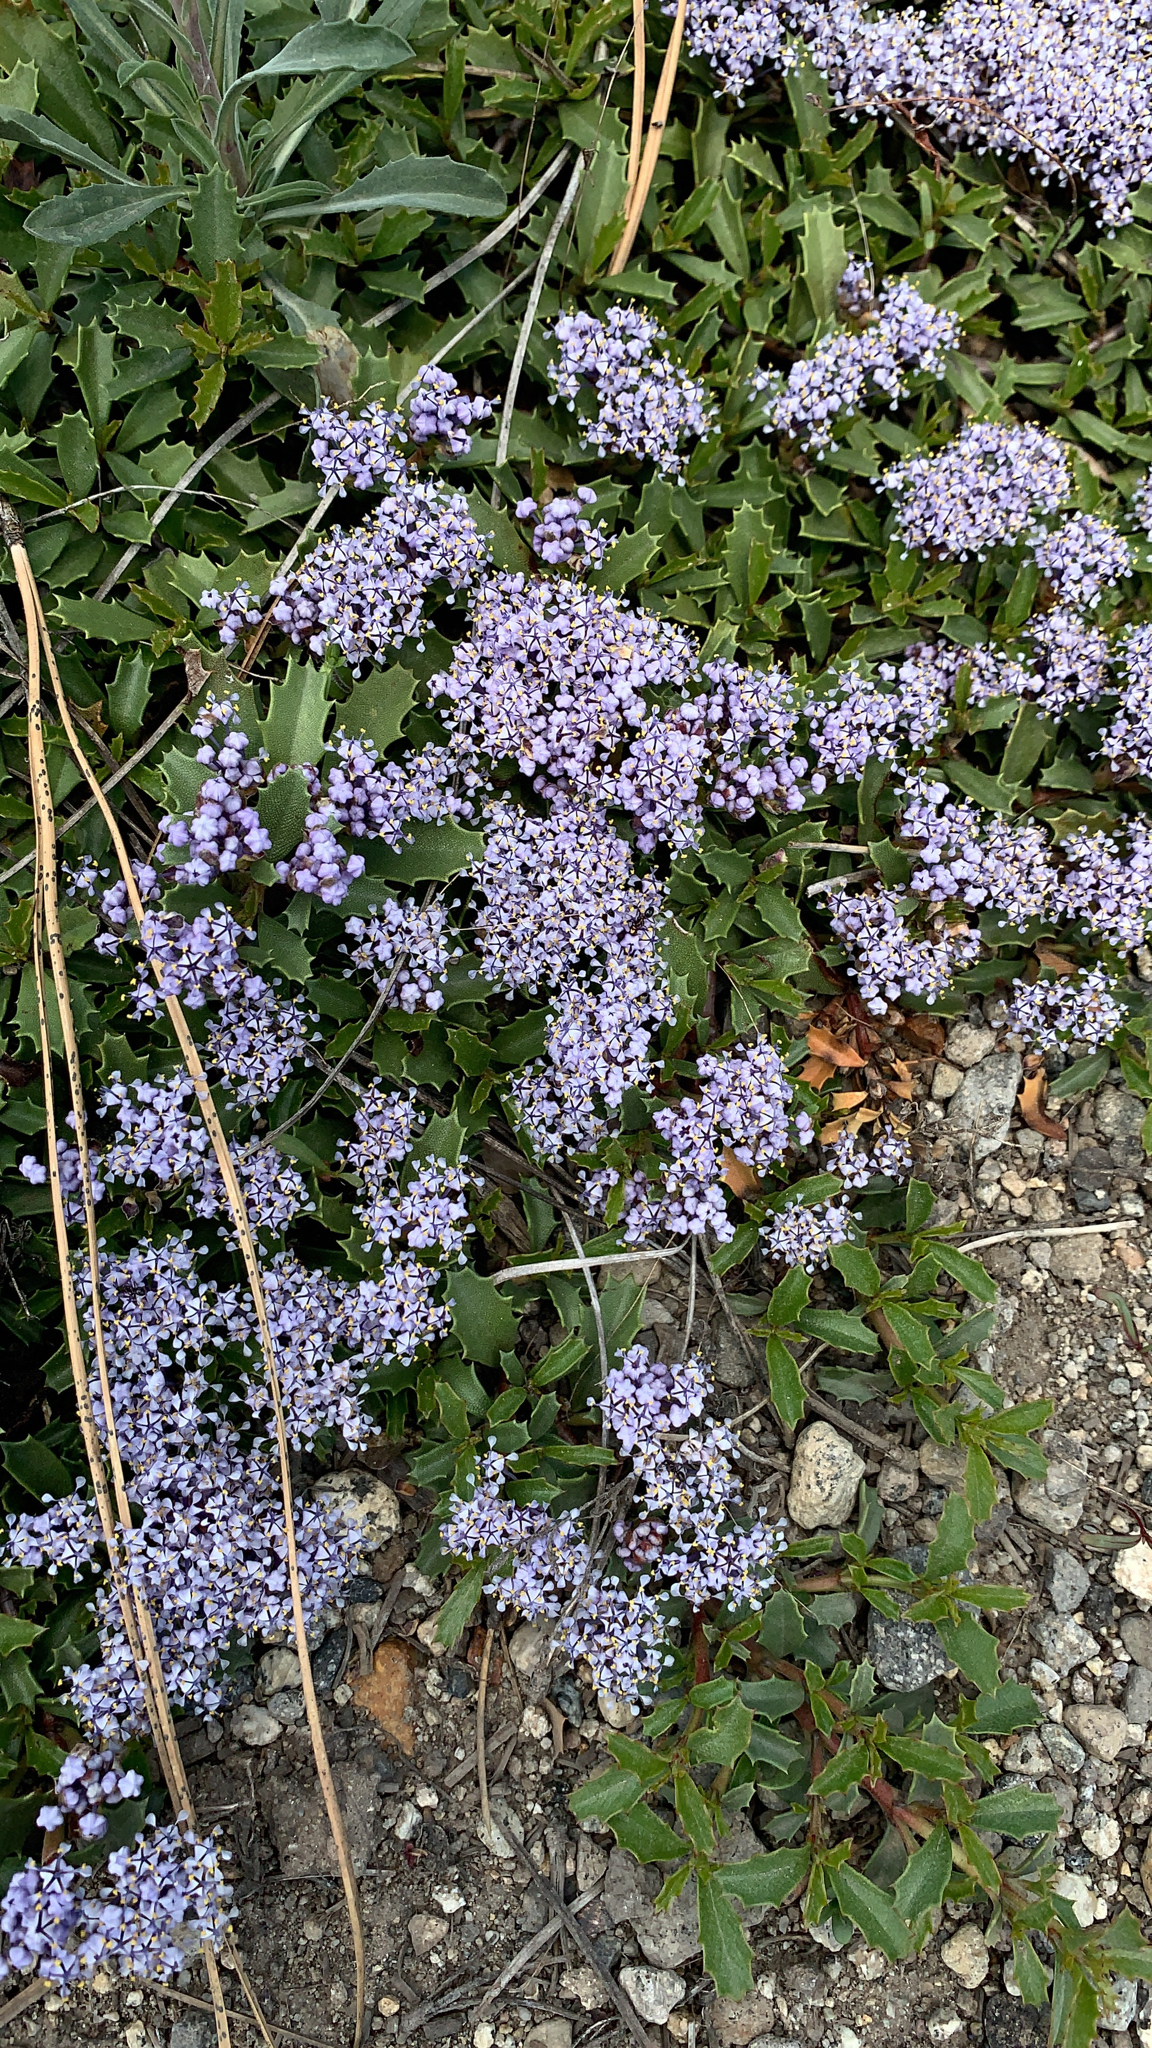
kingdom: Plantae
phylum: Tracheophyta
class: Magnoliopsida
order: Rosales
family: Rhamnaceae
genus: Ceanothus
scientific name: Ceanothus prostratus
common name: Mahala-mat
